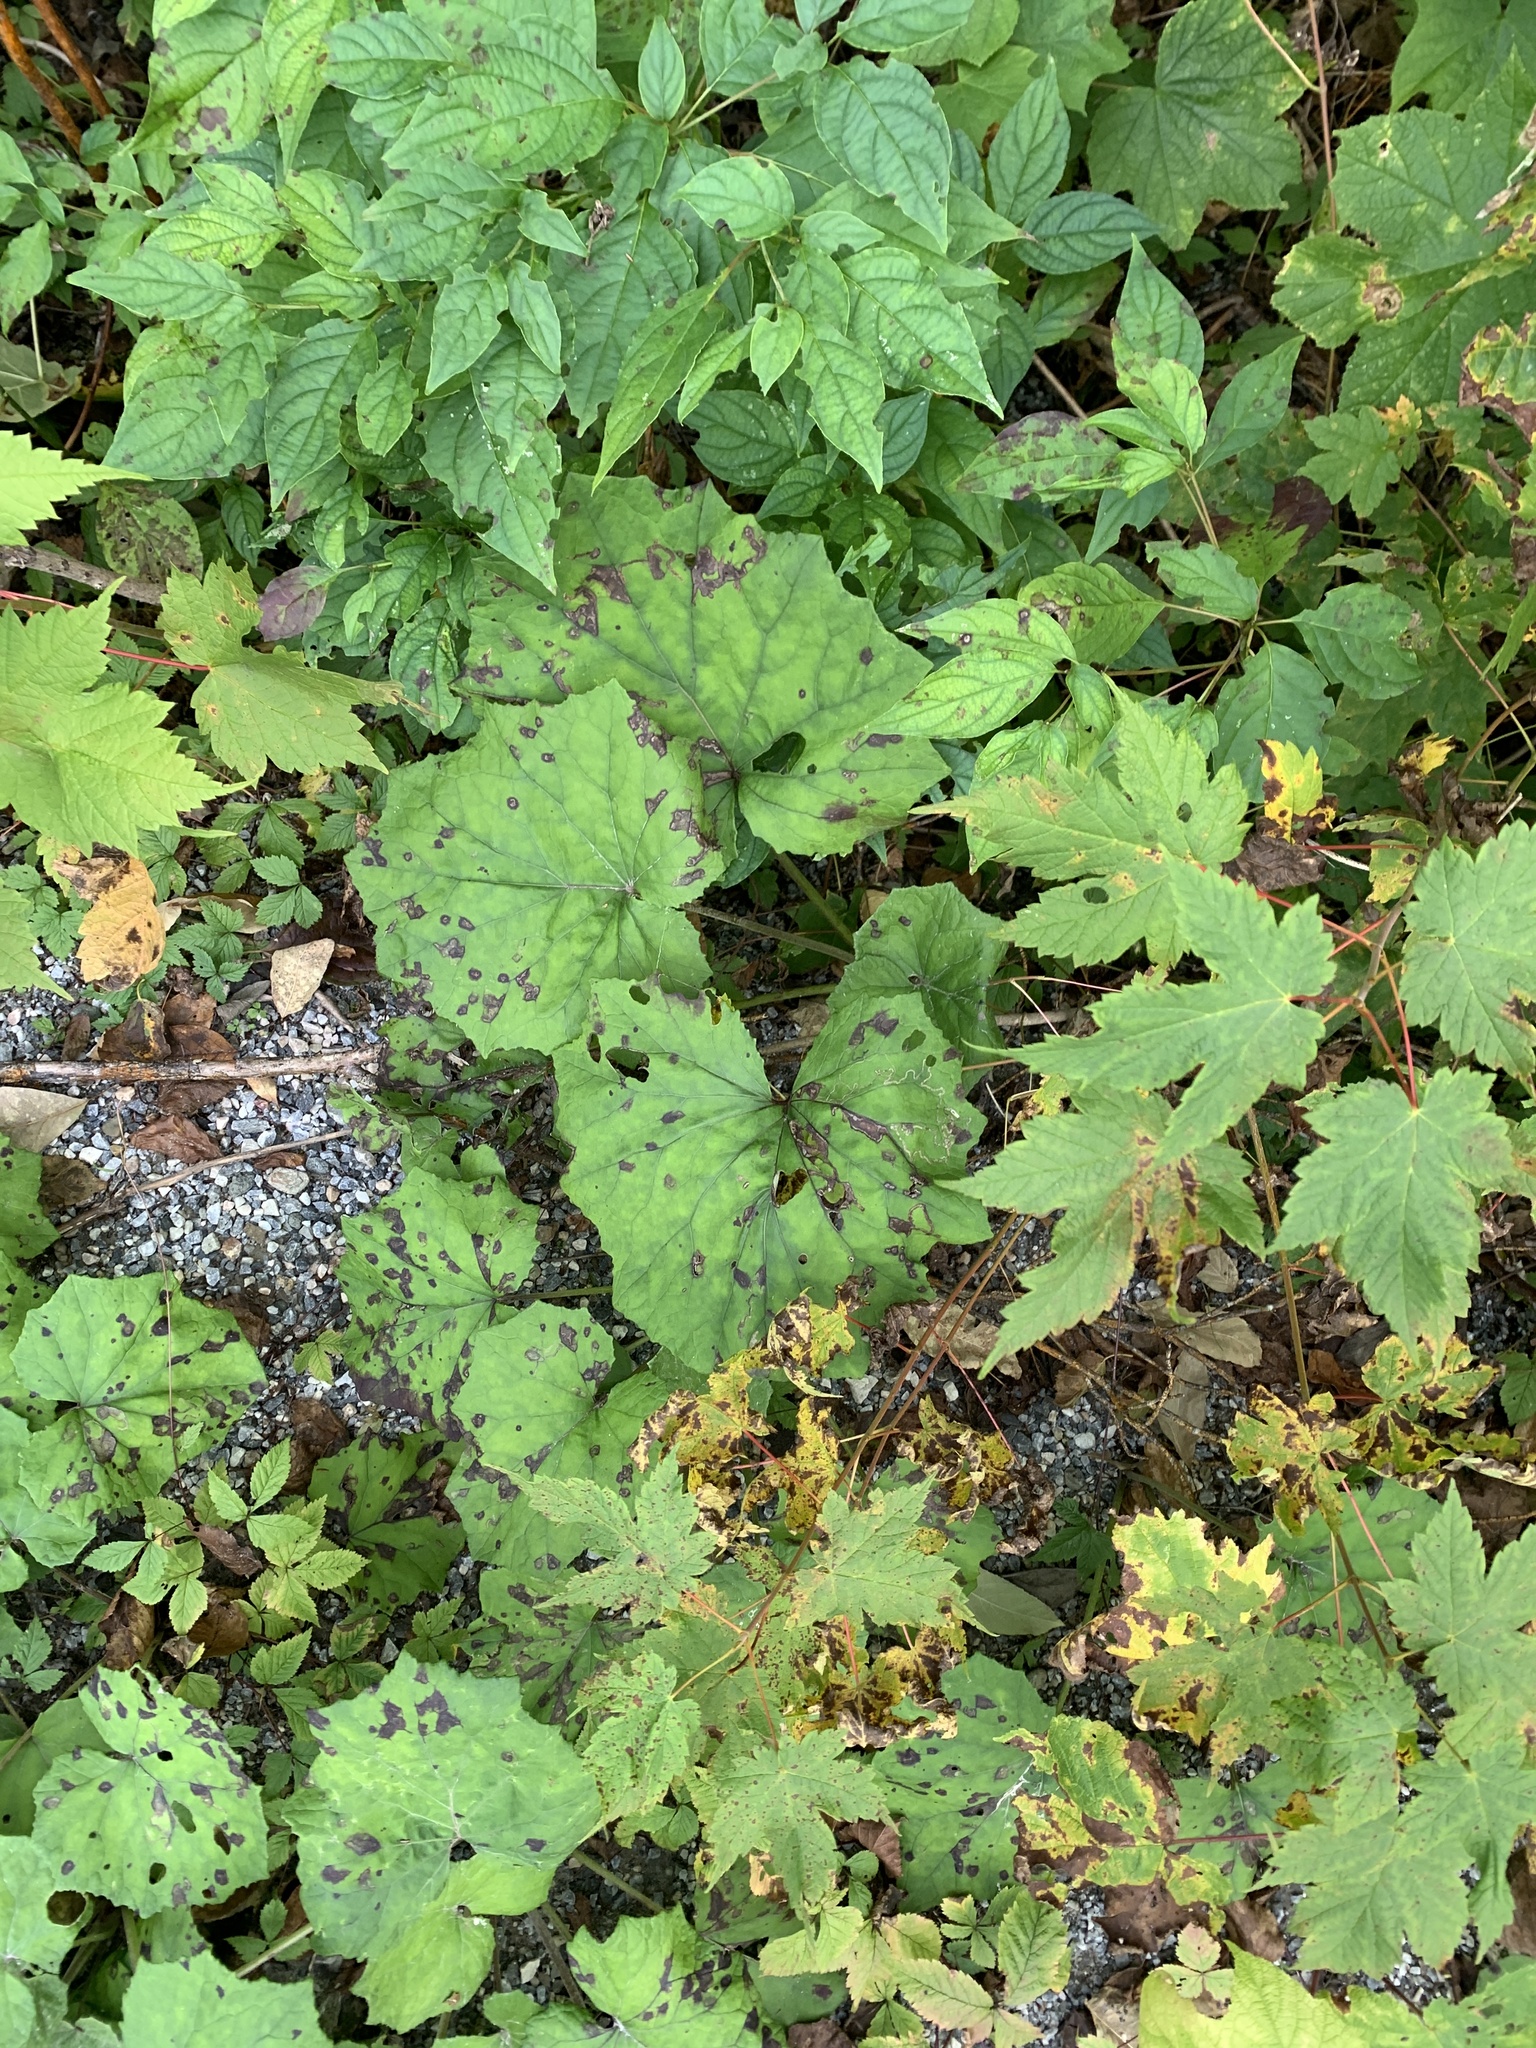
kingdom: Plantae
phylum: Tracheophyta
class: Magnoliopsida
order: Asterales
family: Asteraceae
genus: Tussilago
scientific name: Tussilago farfara
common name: Coltsfoot
